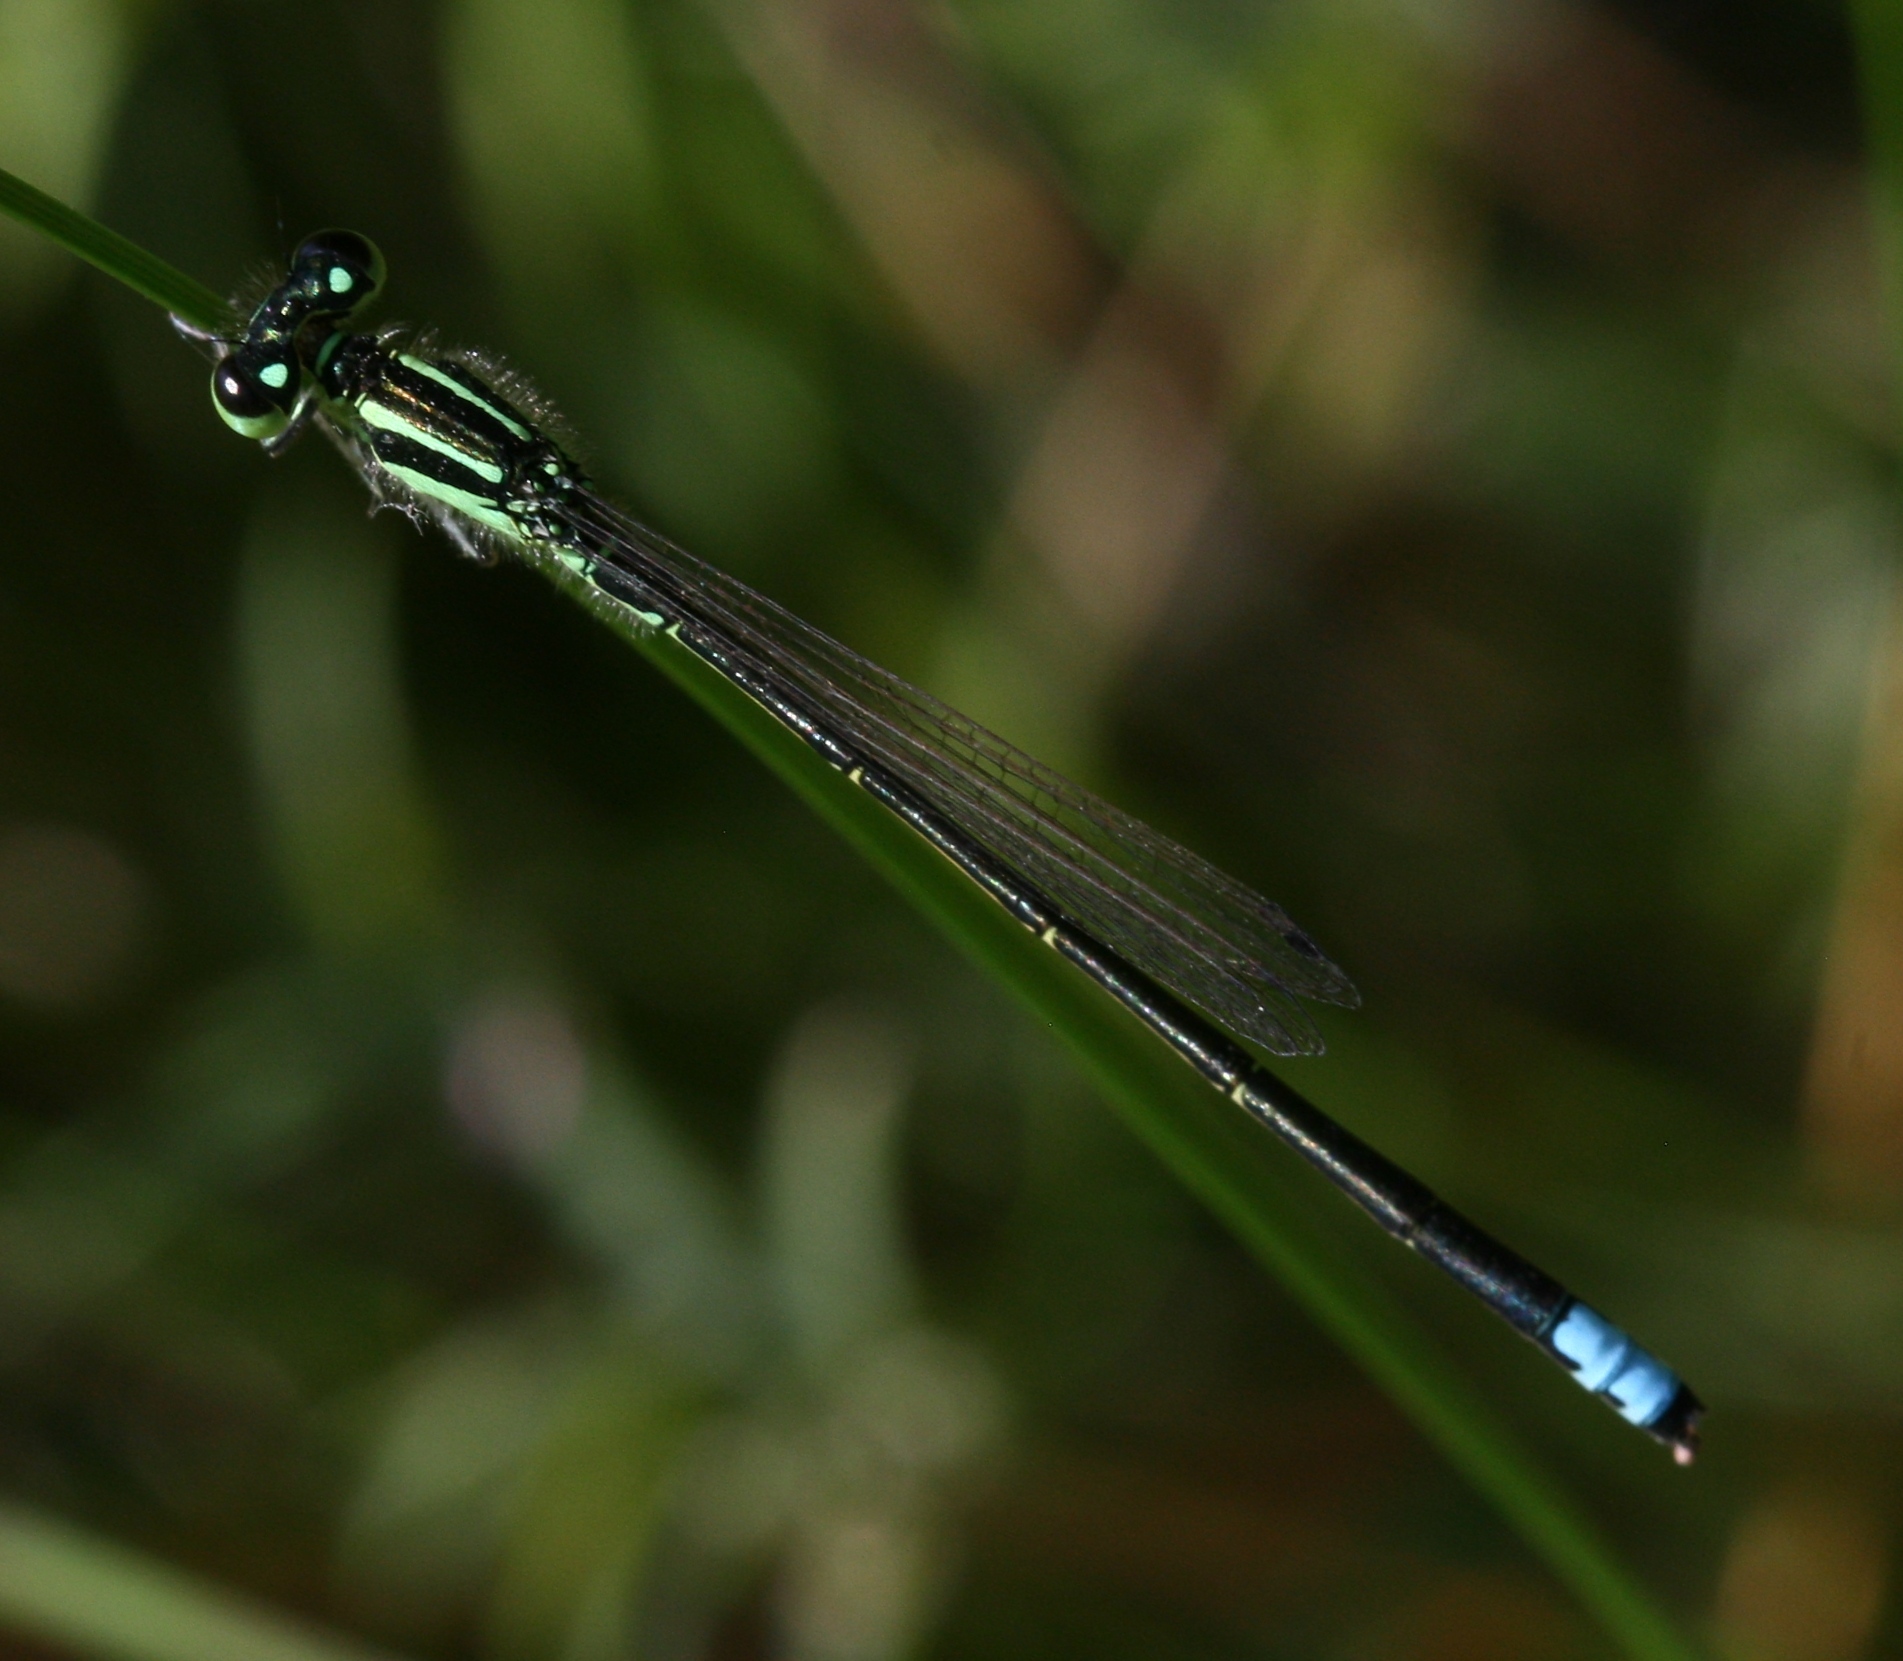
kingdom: Animalia
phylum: Arthropoda
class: Insecta
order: Odonata
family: Coenagrionidae
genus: Ischnura
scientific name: Ischnura verticalis
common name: Eastern forktail
